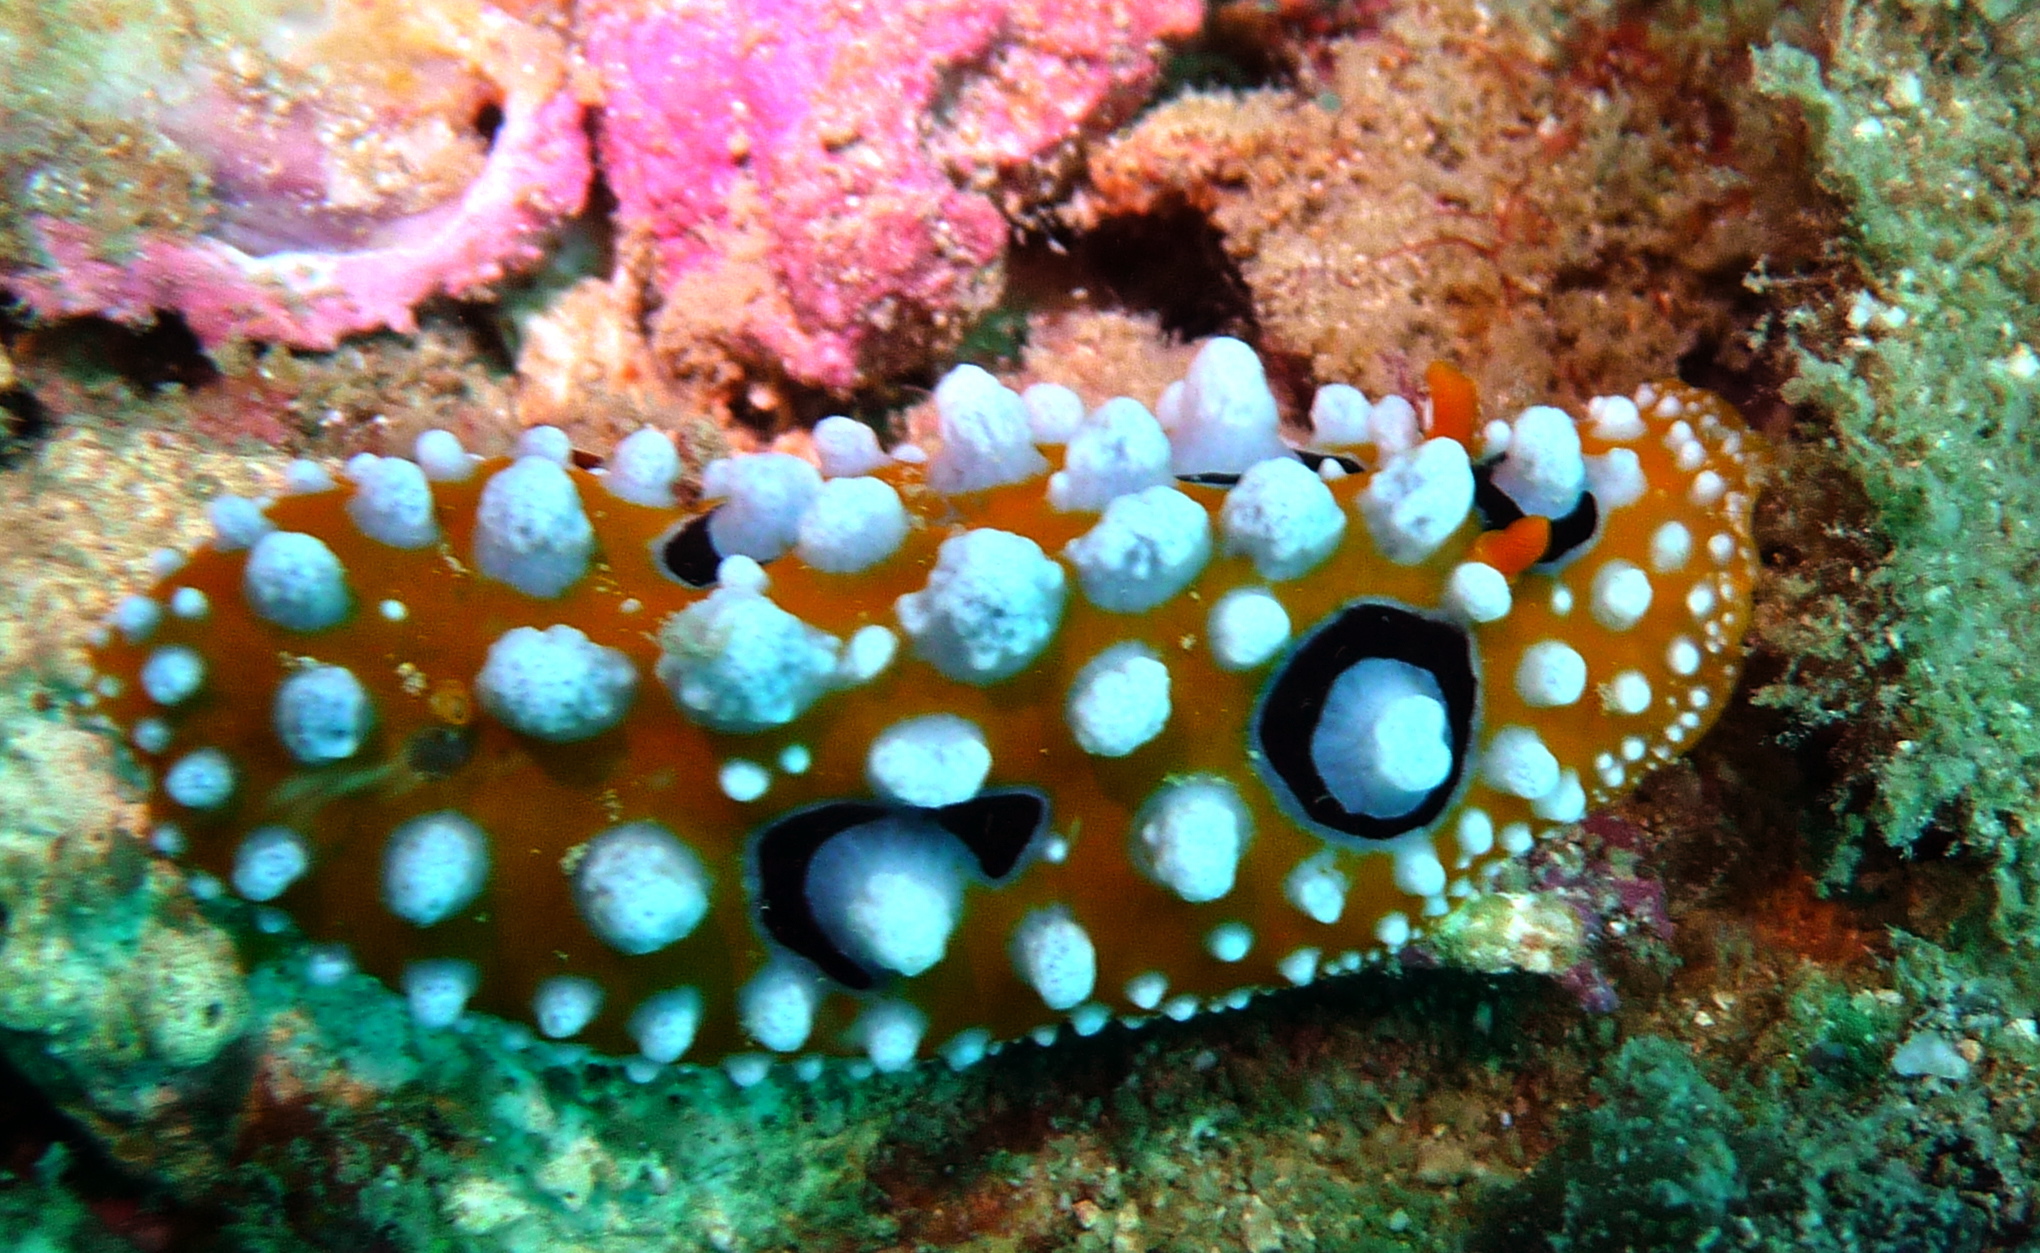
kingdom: Animalia
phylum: Mollusca
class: Gastropoda
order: Nudibranchia
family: Phyllidiidae
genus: Phyllidia
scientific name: Phyllidia ocellata
